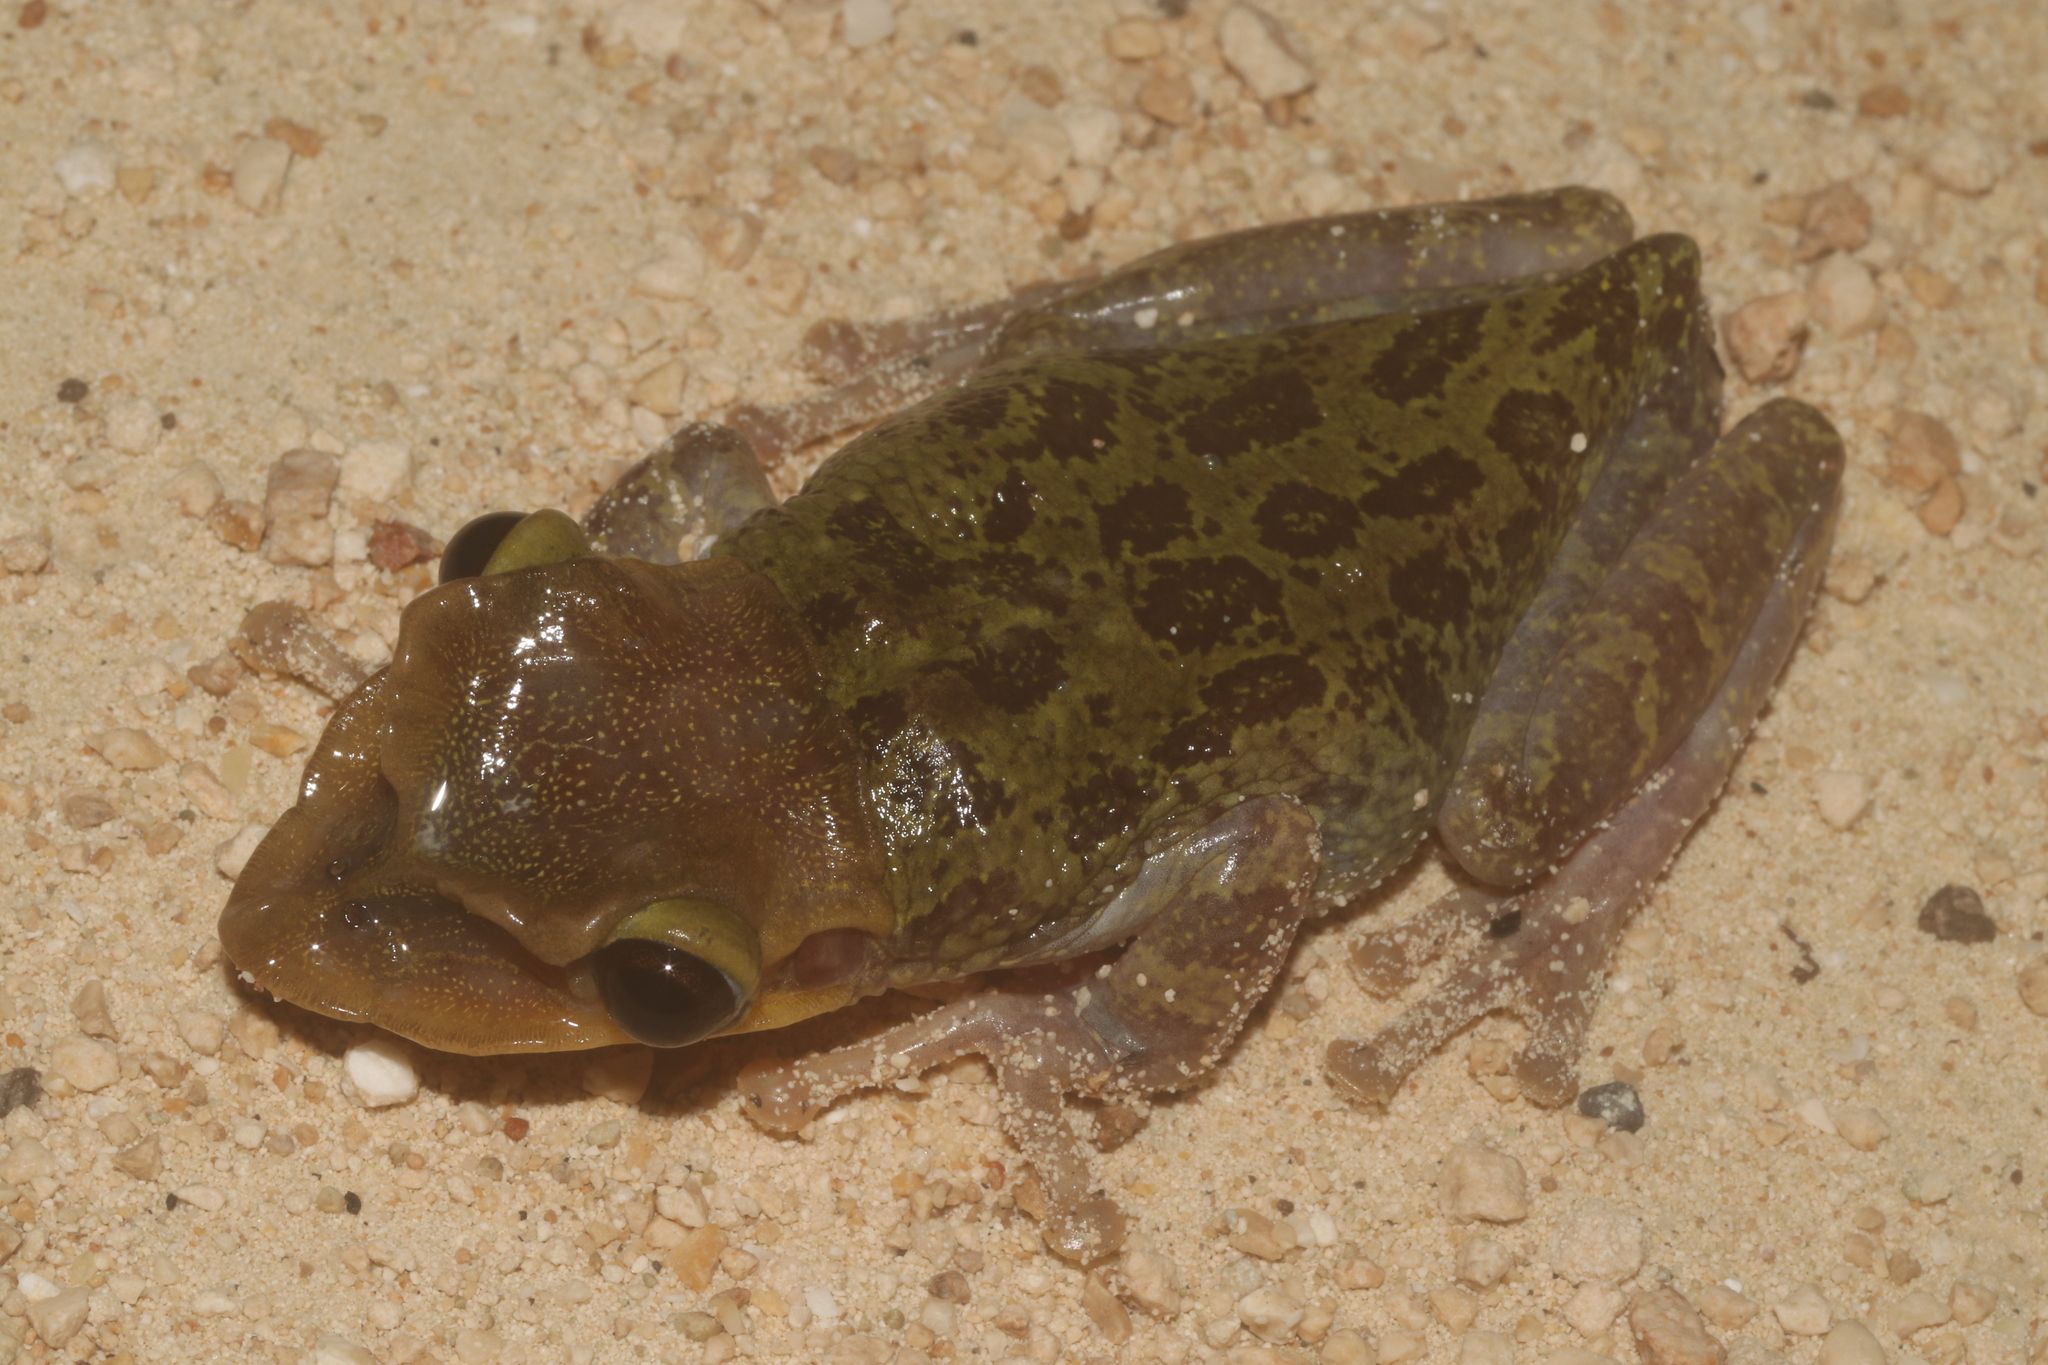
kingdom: Animalia
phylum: Chordata
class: Amphibia
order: Anura
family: Hylidae
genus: Triprion
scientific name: Triprion petasatus
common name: Yucatecan casque-headed treefrog
